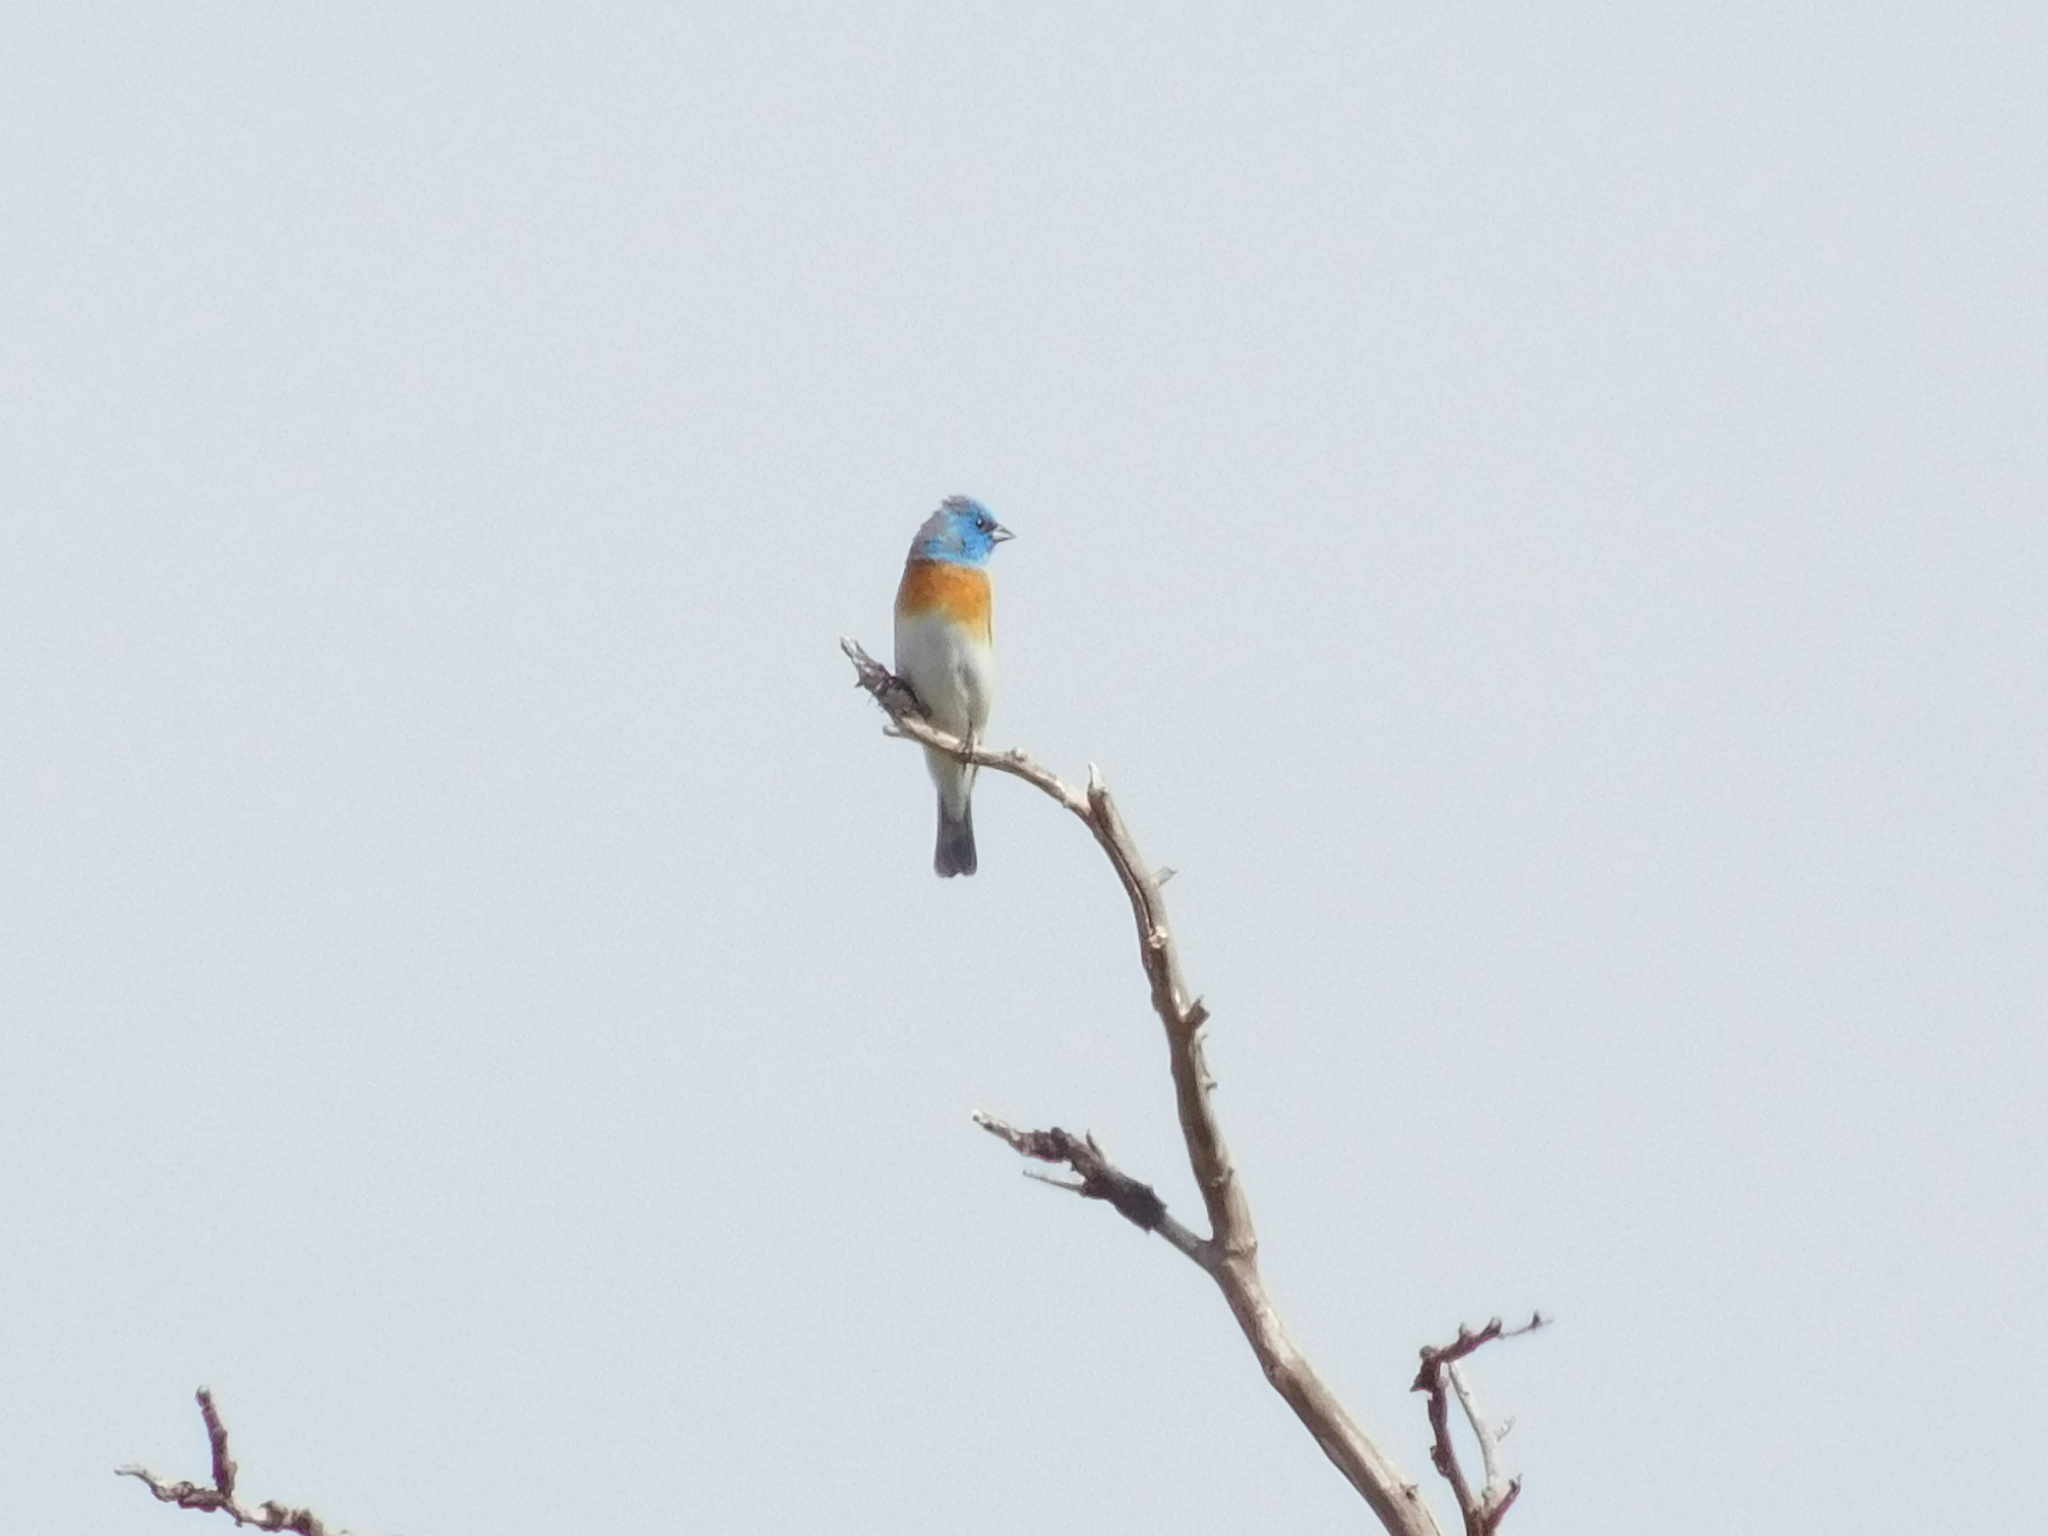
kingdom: Animalia
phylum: Chordata
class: Aves
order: Passeriformes
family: Cardinalidae
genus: Passerina
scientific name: Passerina amoena
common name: Lazuli bunting
